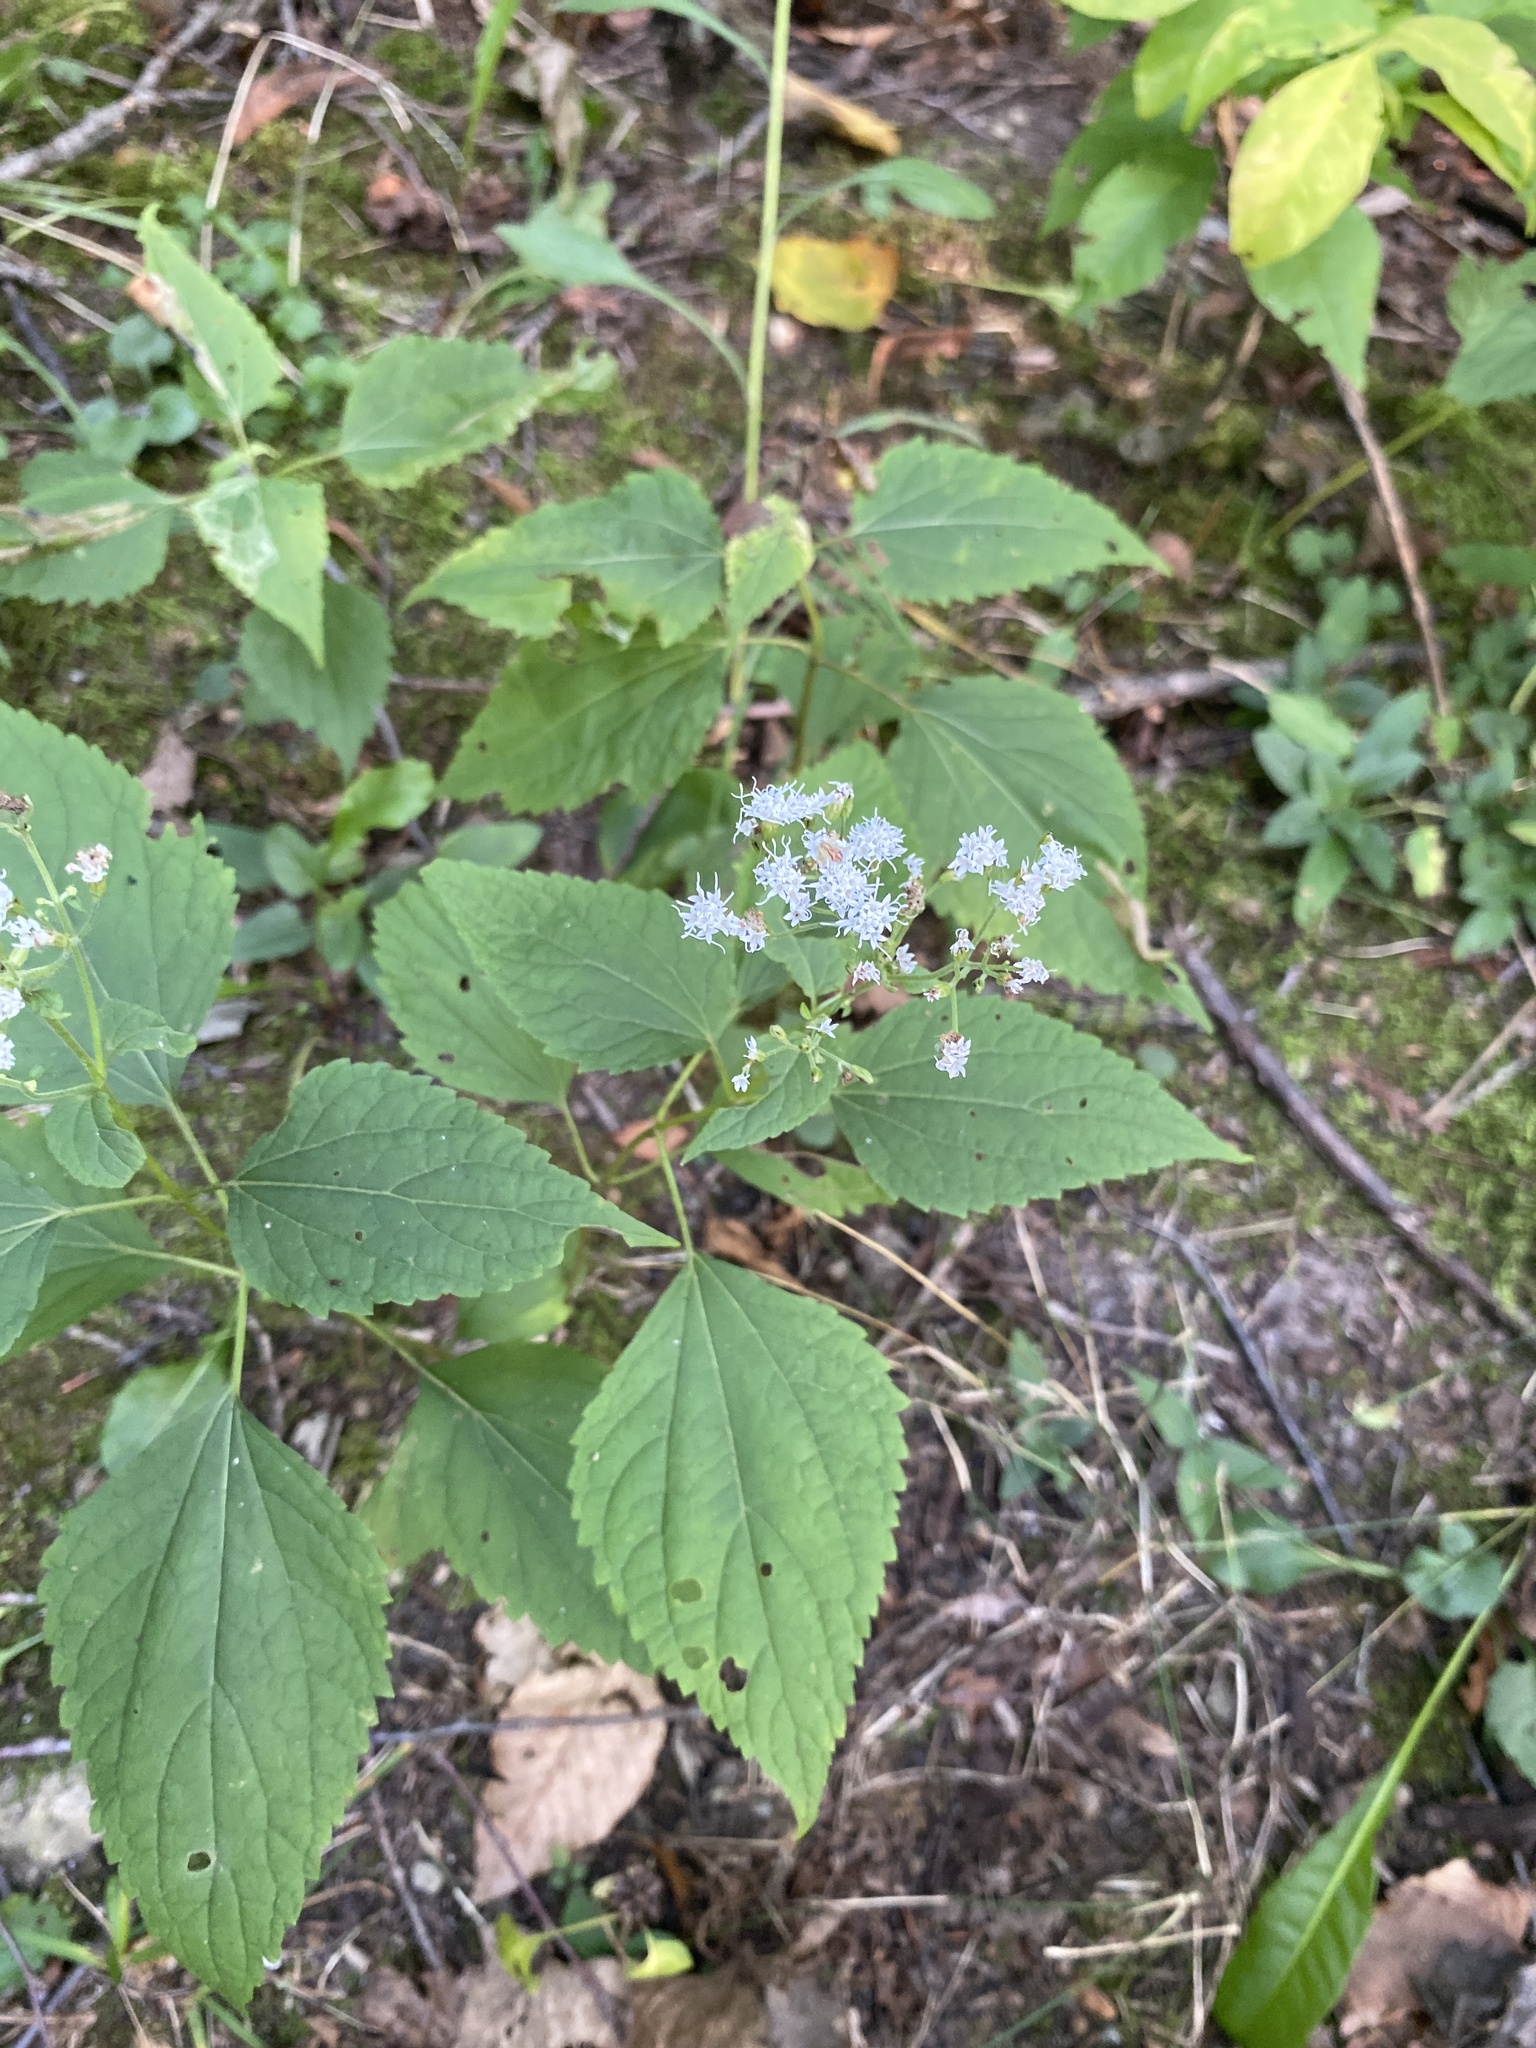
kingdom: Plantae
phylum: Tracheophyta
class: Magnoliopsida
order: Asterales
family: Asteraceae
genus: Ageratina
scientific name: Ageratina altissima
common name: White snakeroot
